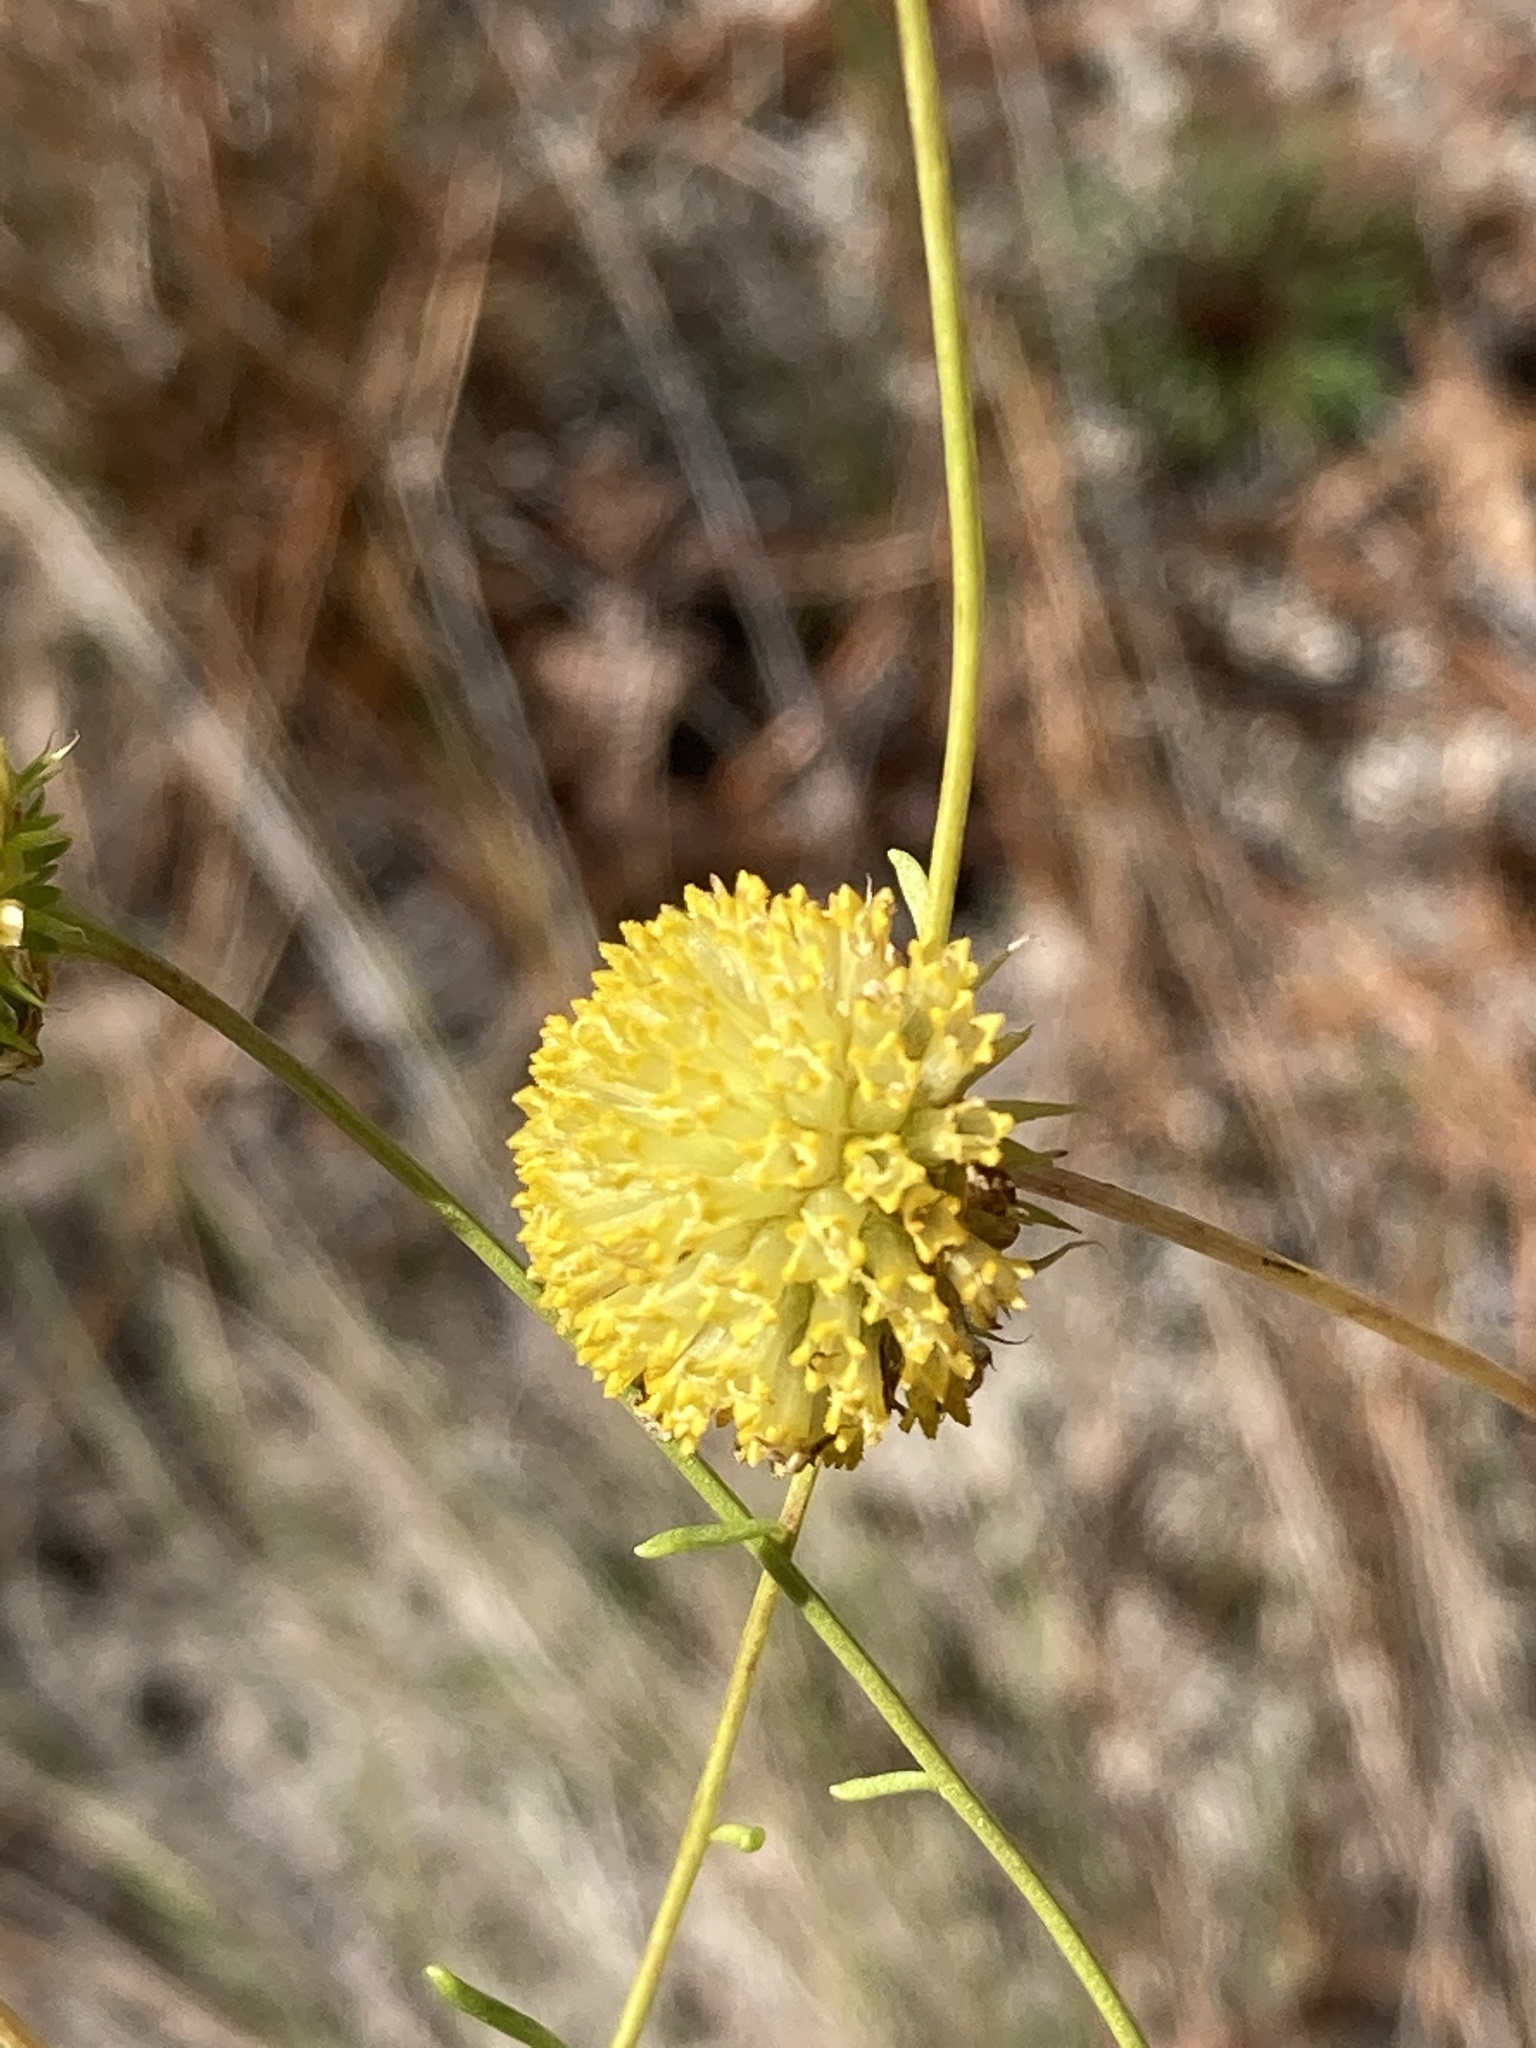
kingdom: Plantae
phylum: Tracheophyta
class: Magnoliopsida
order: Asterales
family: Asteraceae
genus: Balduina
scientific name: Balduina angustifolia
